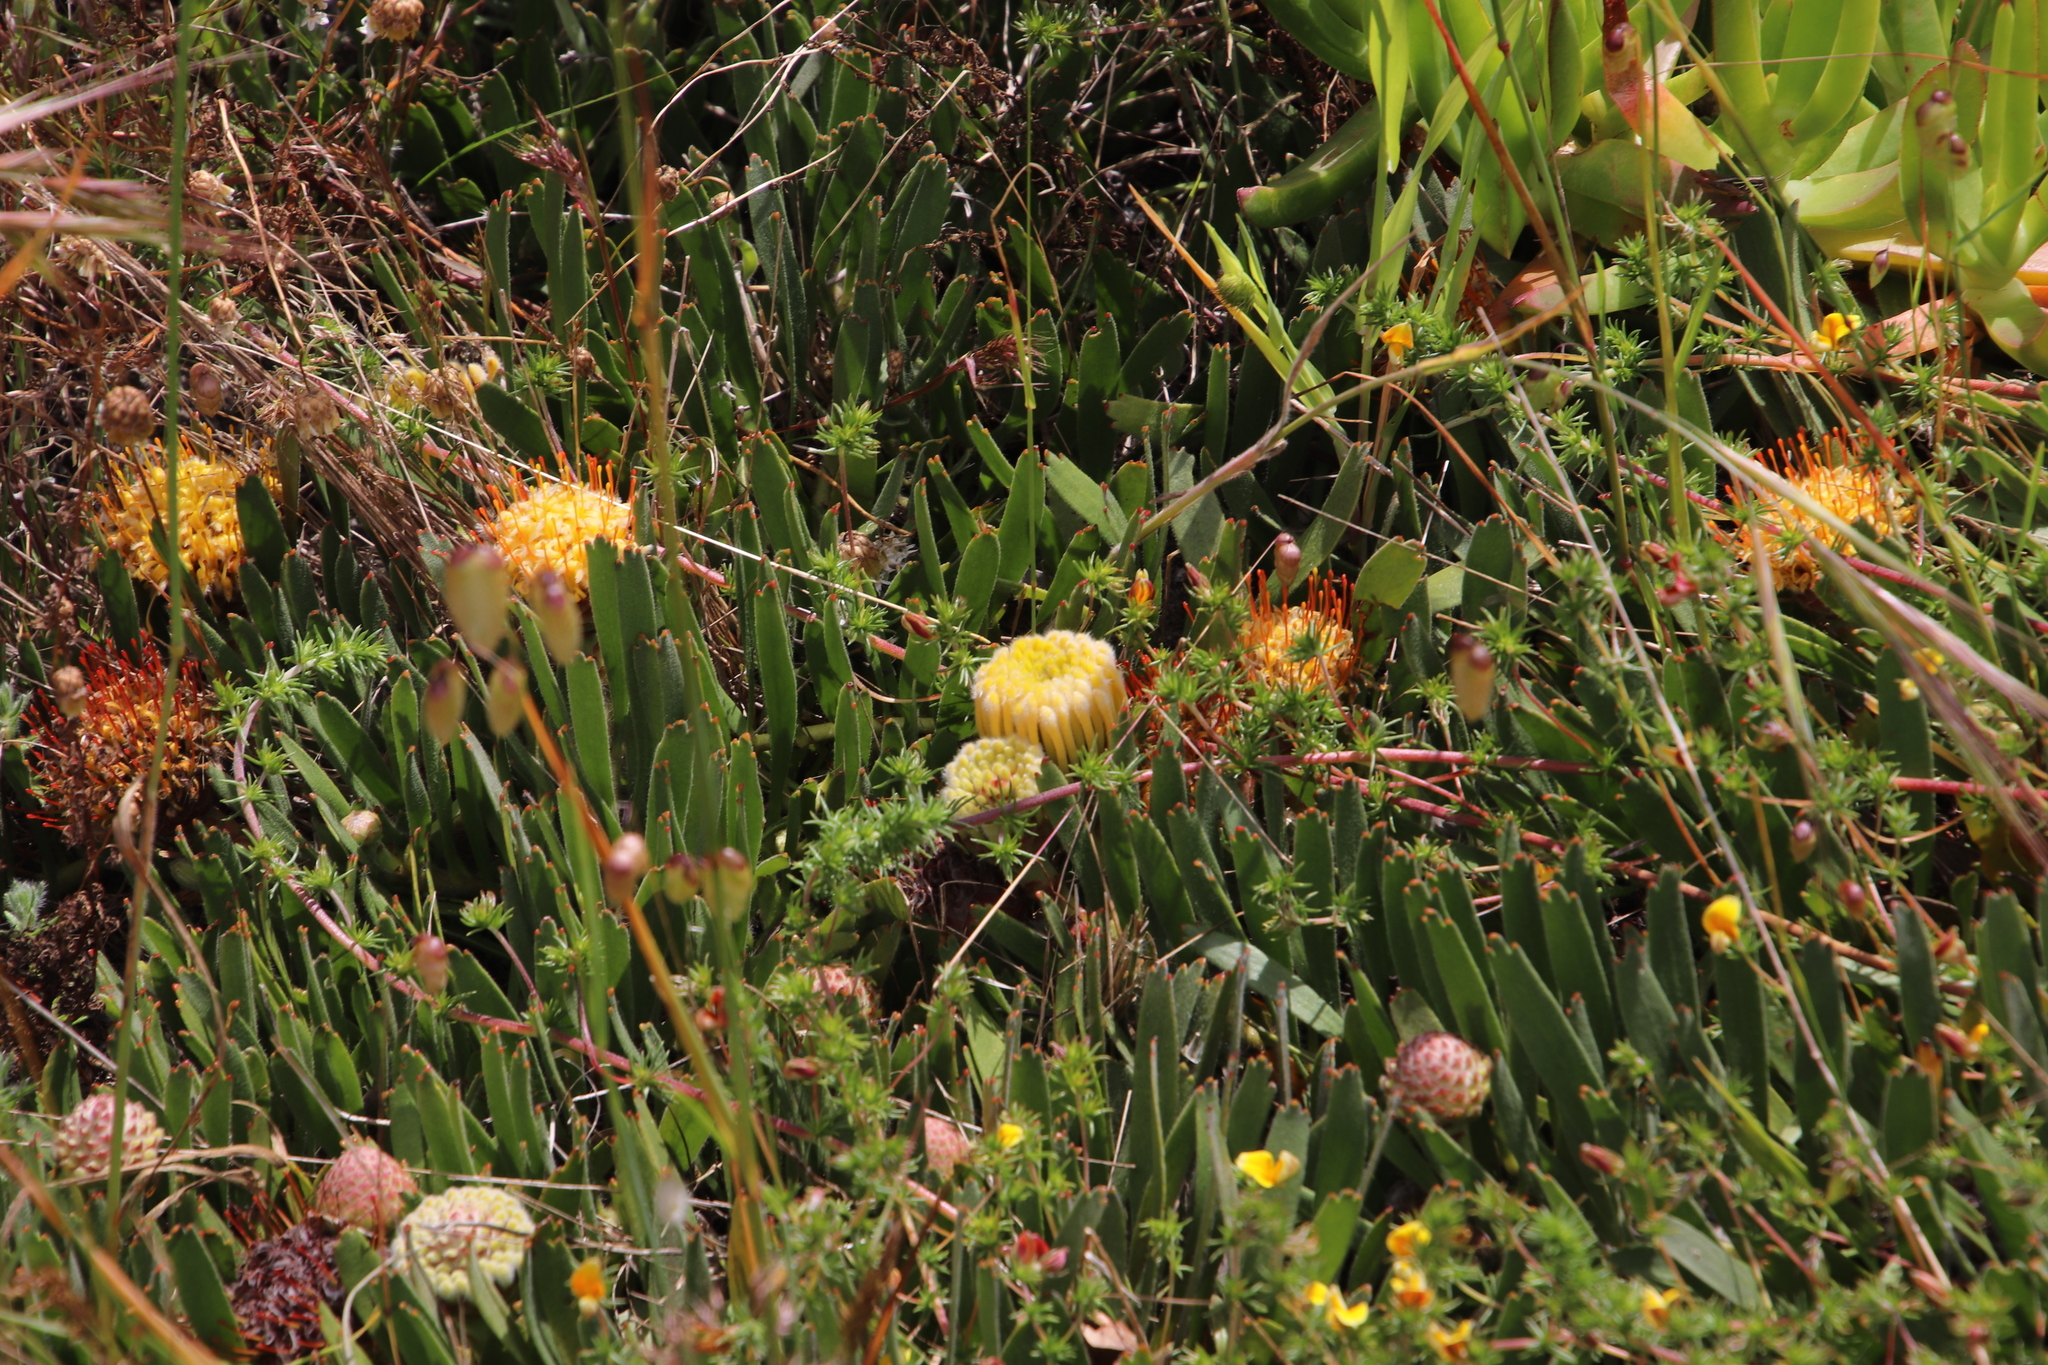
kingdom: Plantae
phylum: Tracheophyta
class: Magnoliopsida
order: Proteales
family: Proteaceae
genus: Leucospermum
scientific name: Leucospermum hypophyllocarpodendron
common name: Snakestem pincushion
